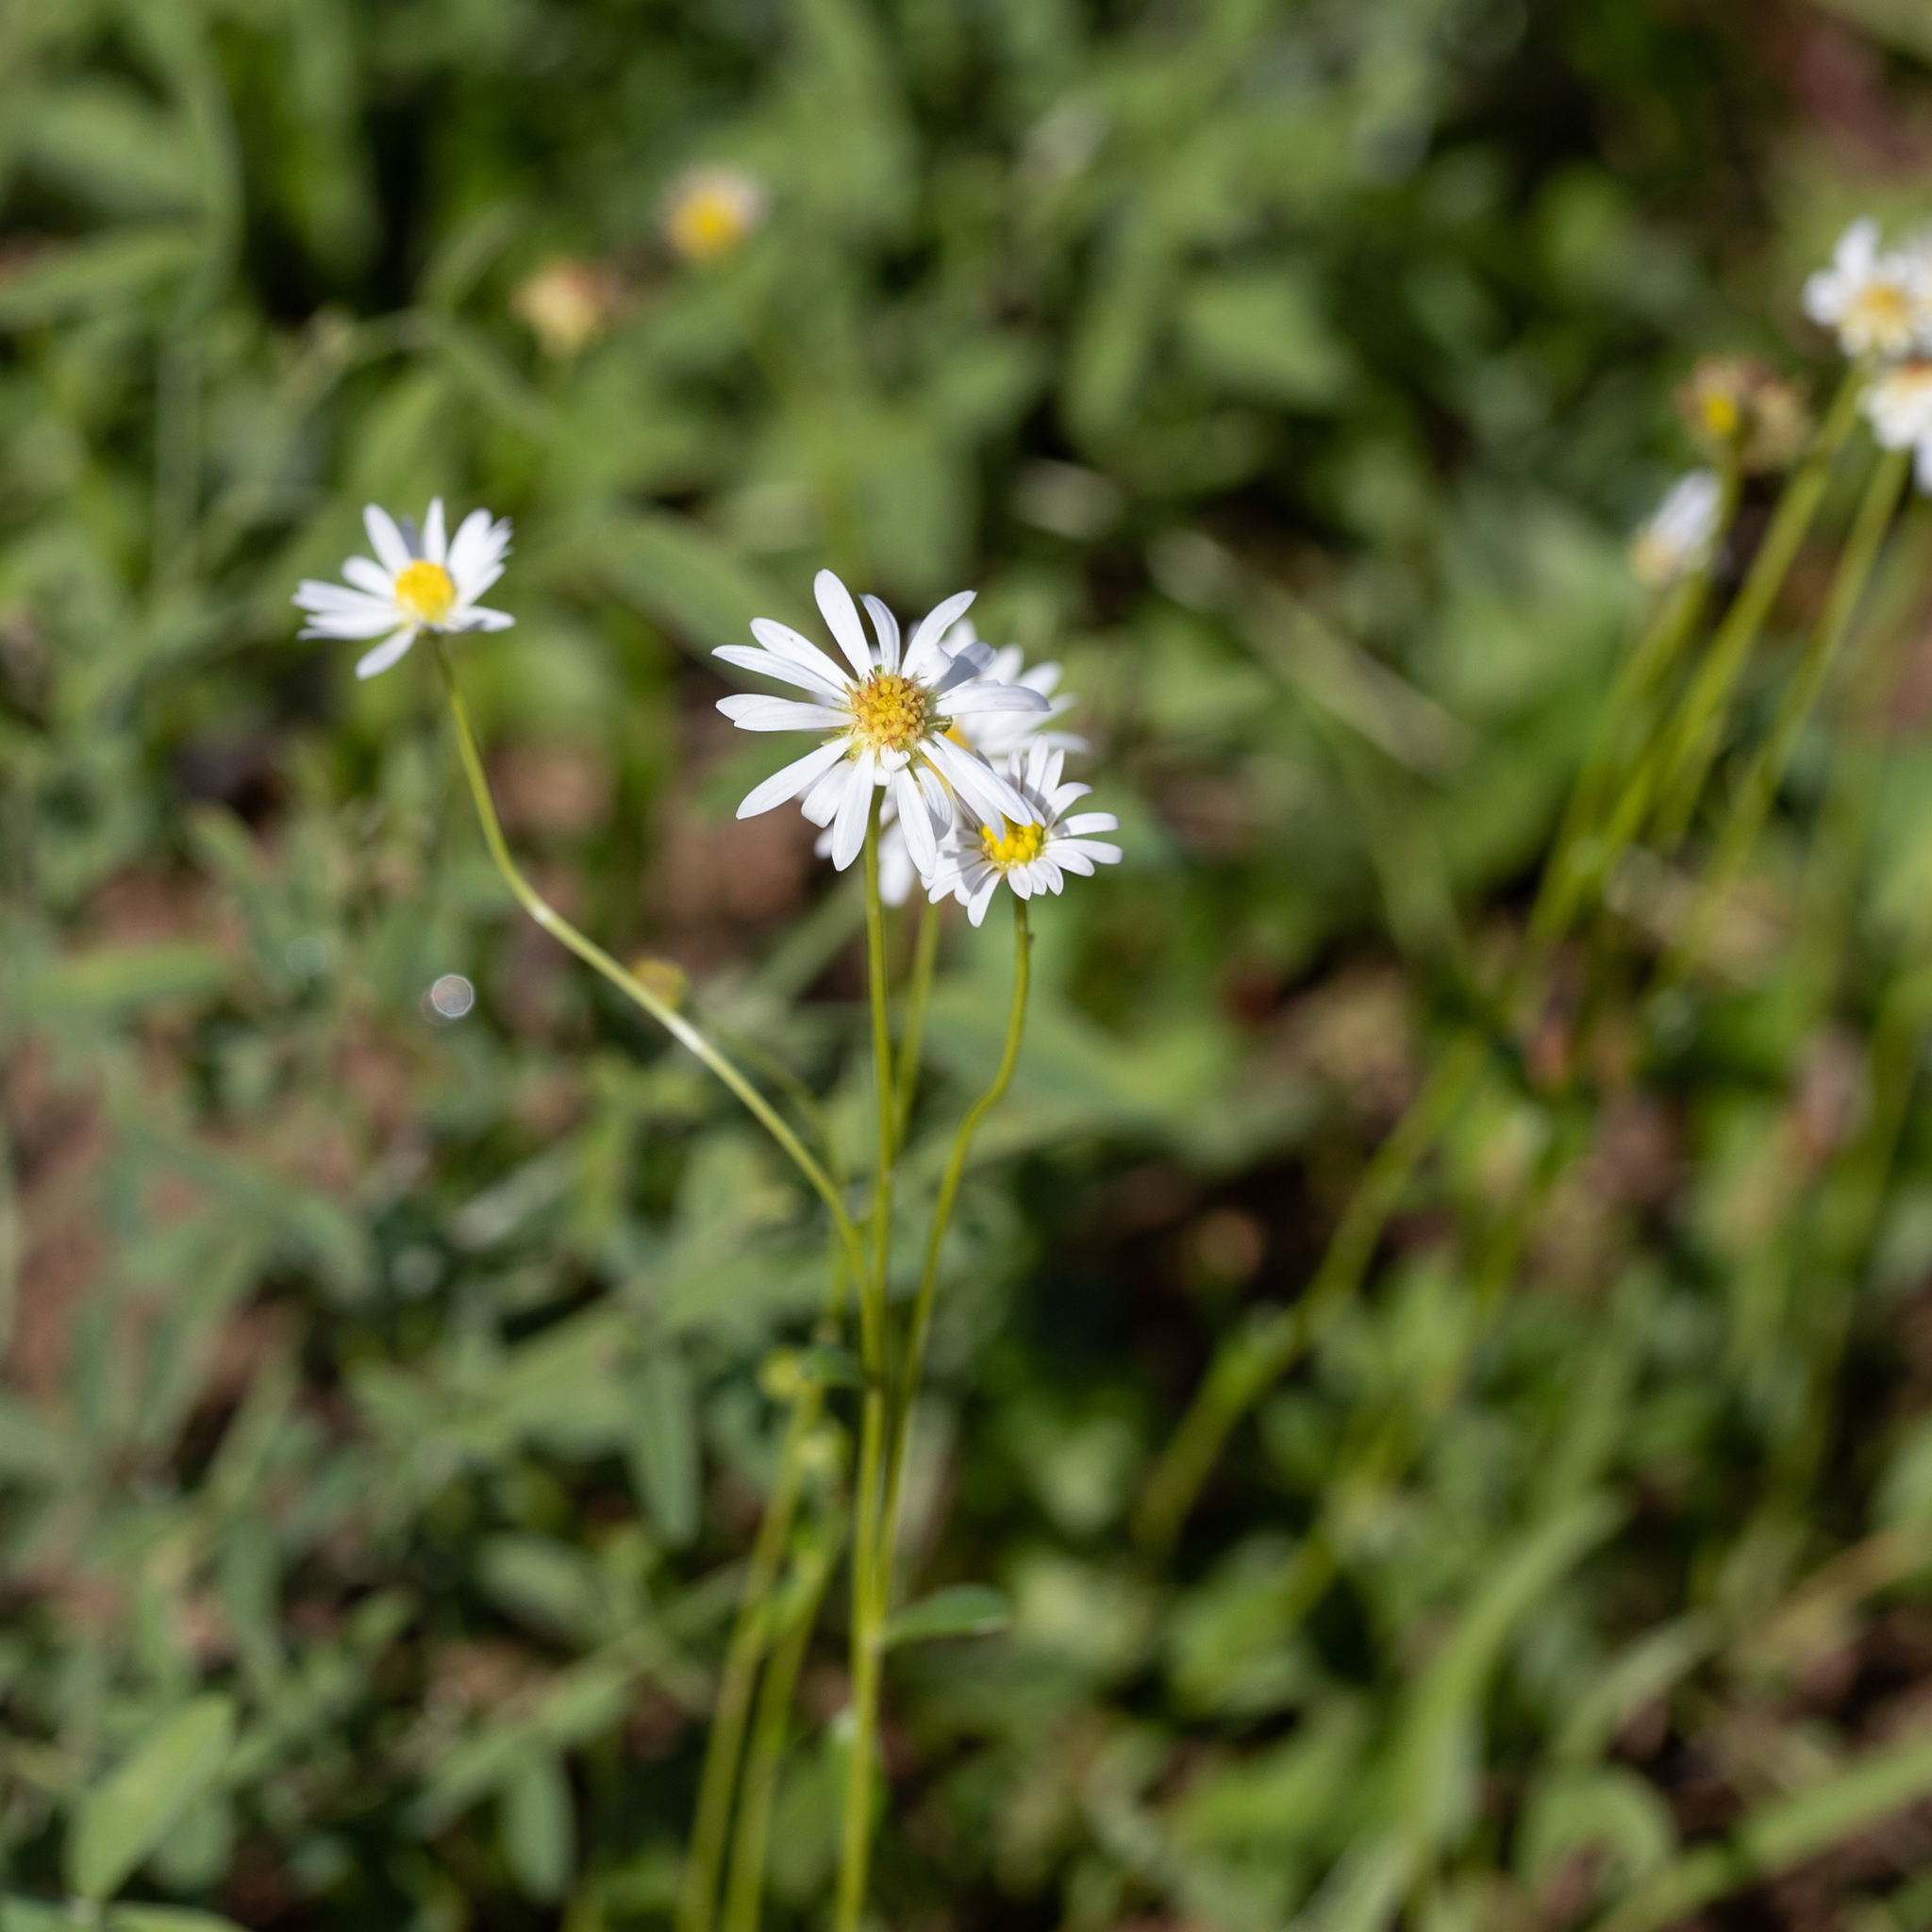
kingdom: Plantae
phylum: Tracheophyta
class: Magnoliopsida
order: Asterales
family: Asteraceae
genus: Calotis
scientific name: Calotis cuneata
